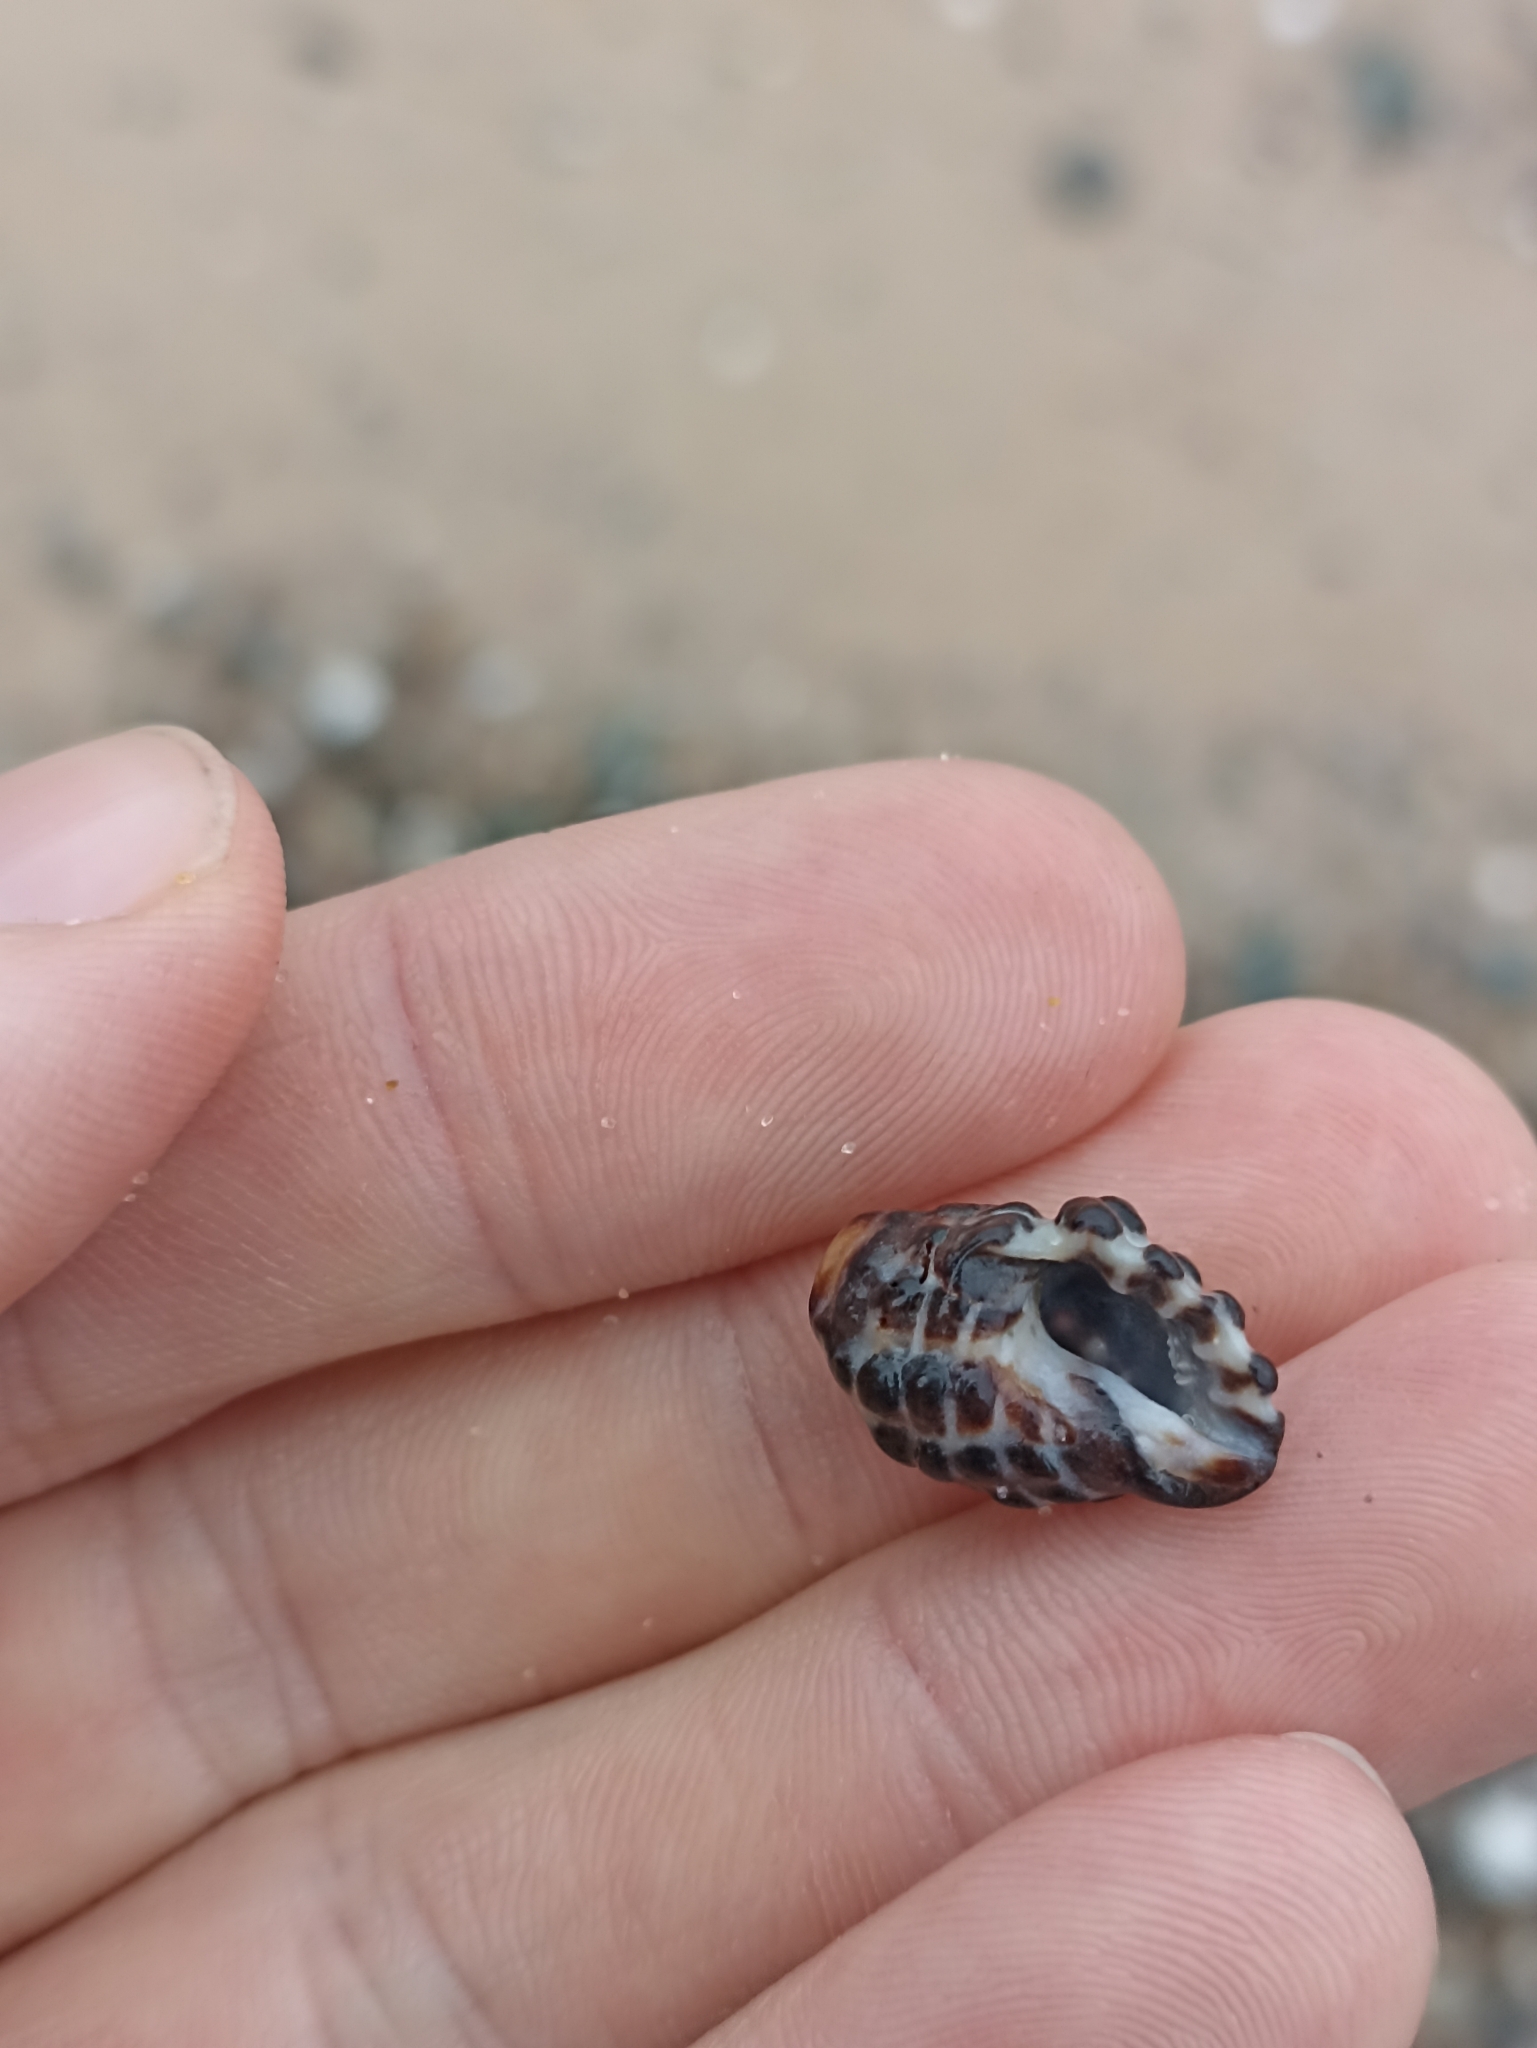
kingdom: Animalia
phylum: Mollusca
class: Gastropoda
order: Neogastropoda
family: Muricidae
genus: Tenguella
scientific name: Tenguella marginalba
